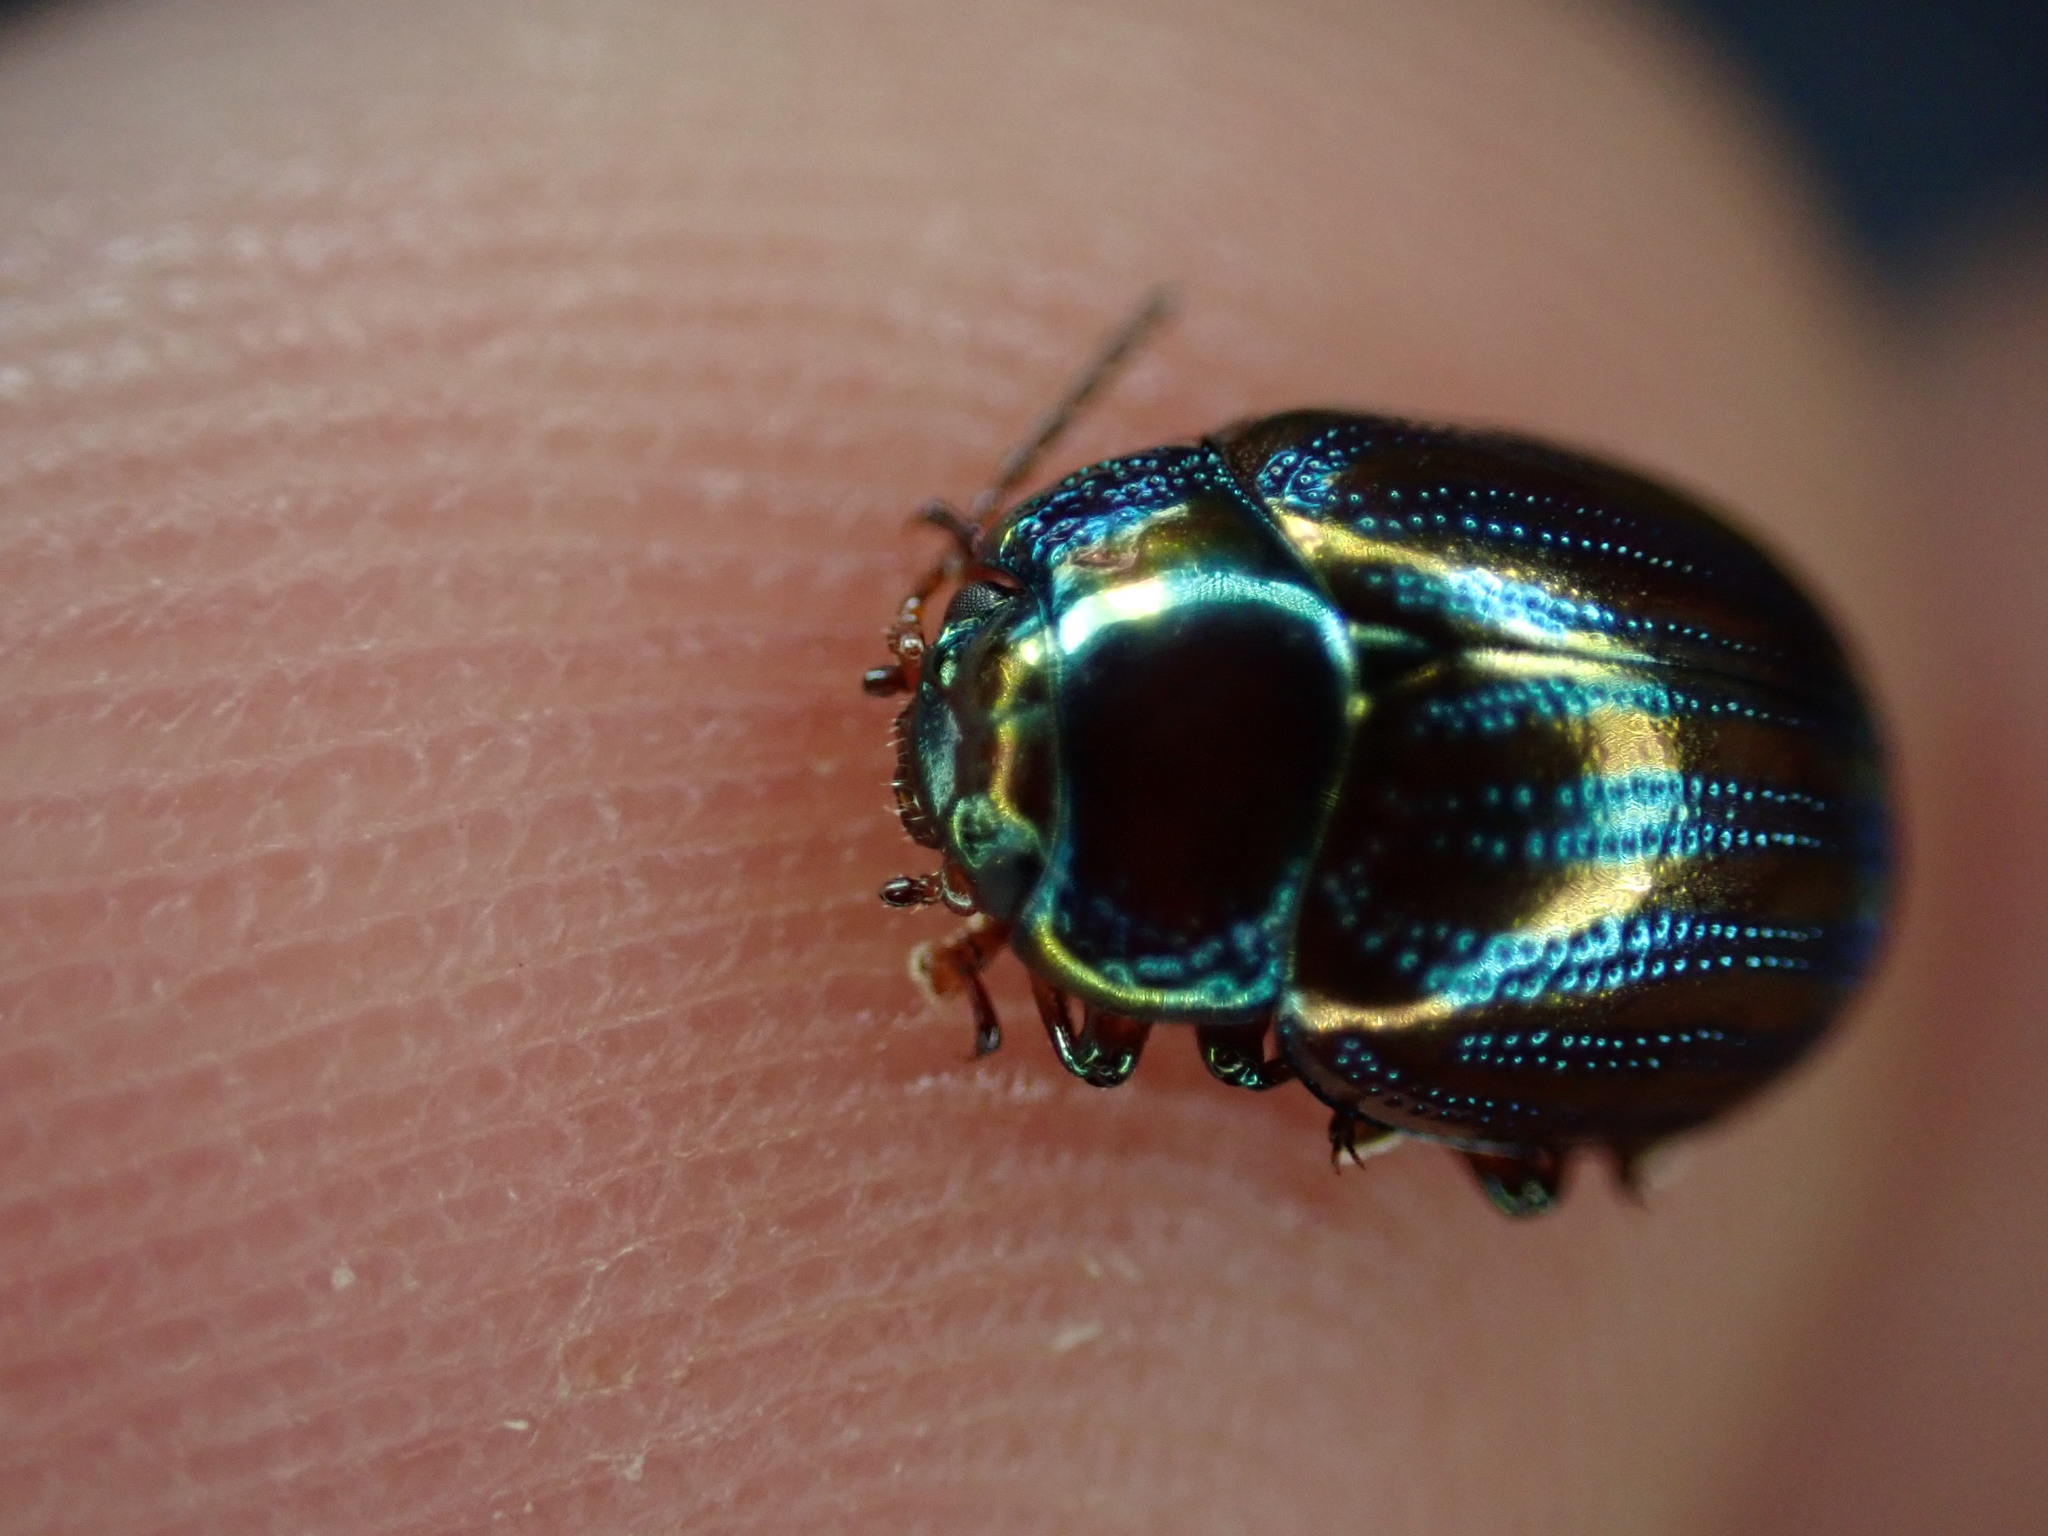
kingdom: Animalia
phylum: Arthropoda
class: Insecta
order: Coleoptera
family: Chrysomelidae
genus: Chrysolina
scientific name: Chrysolina americana
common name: Rosemary beetle
